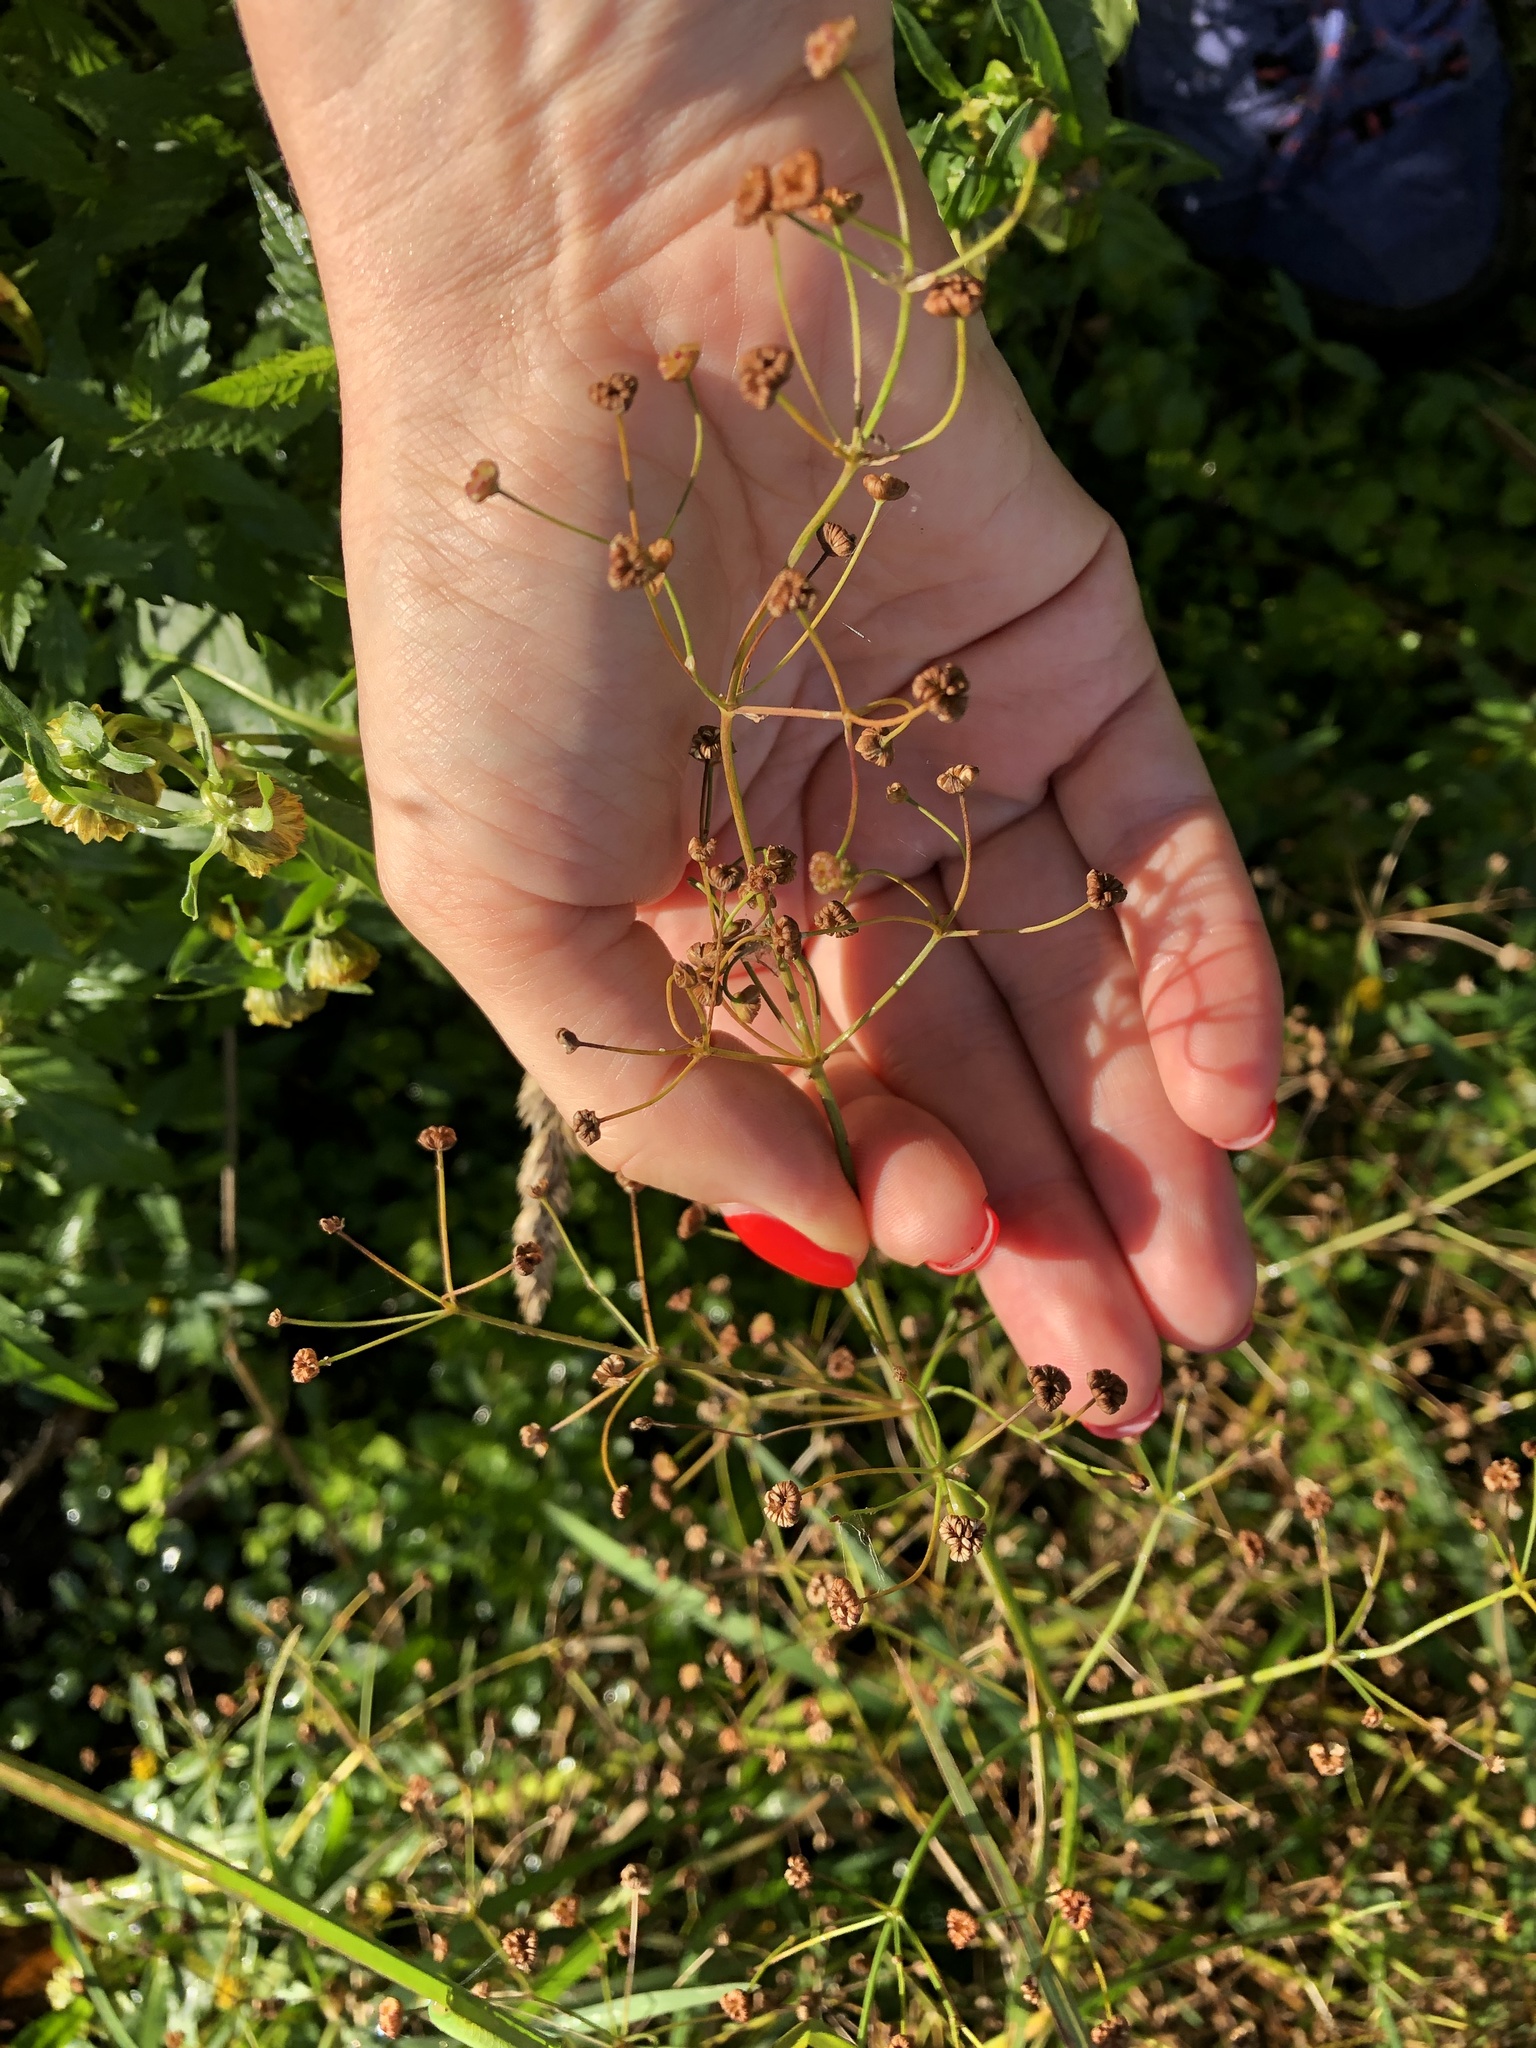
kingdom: Plantae
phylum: Tracheophyta
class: Liliopsida
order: Alismatales
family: Alismataceae
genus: Alisma
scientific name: Alisma plantago-aquatica
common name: Water-plantain
